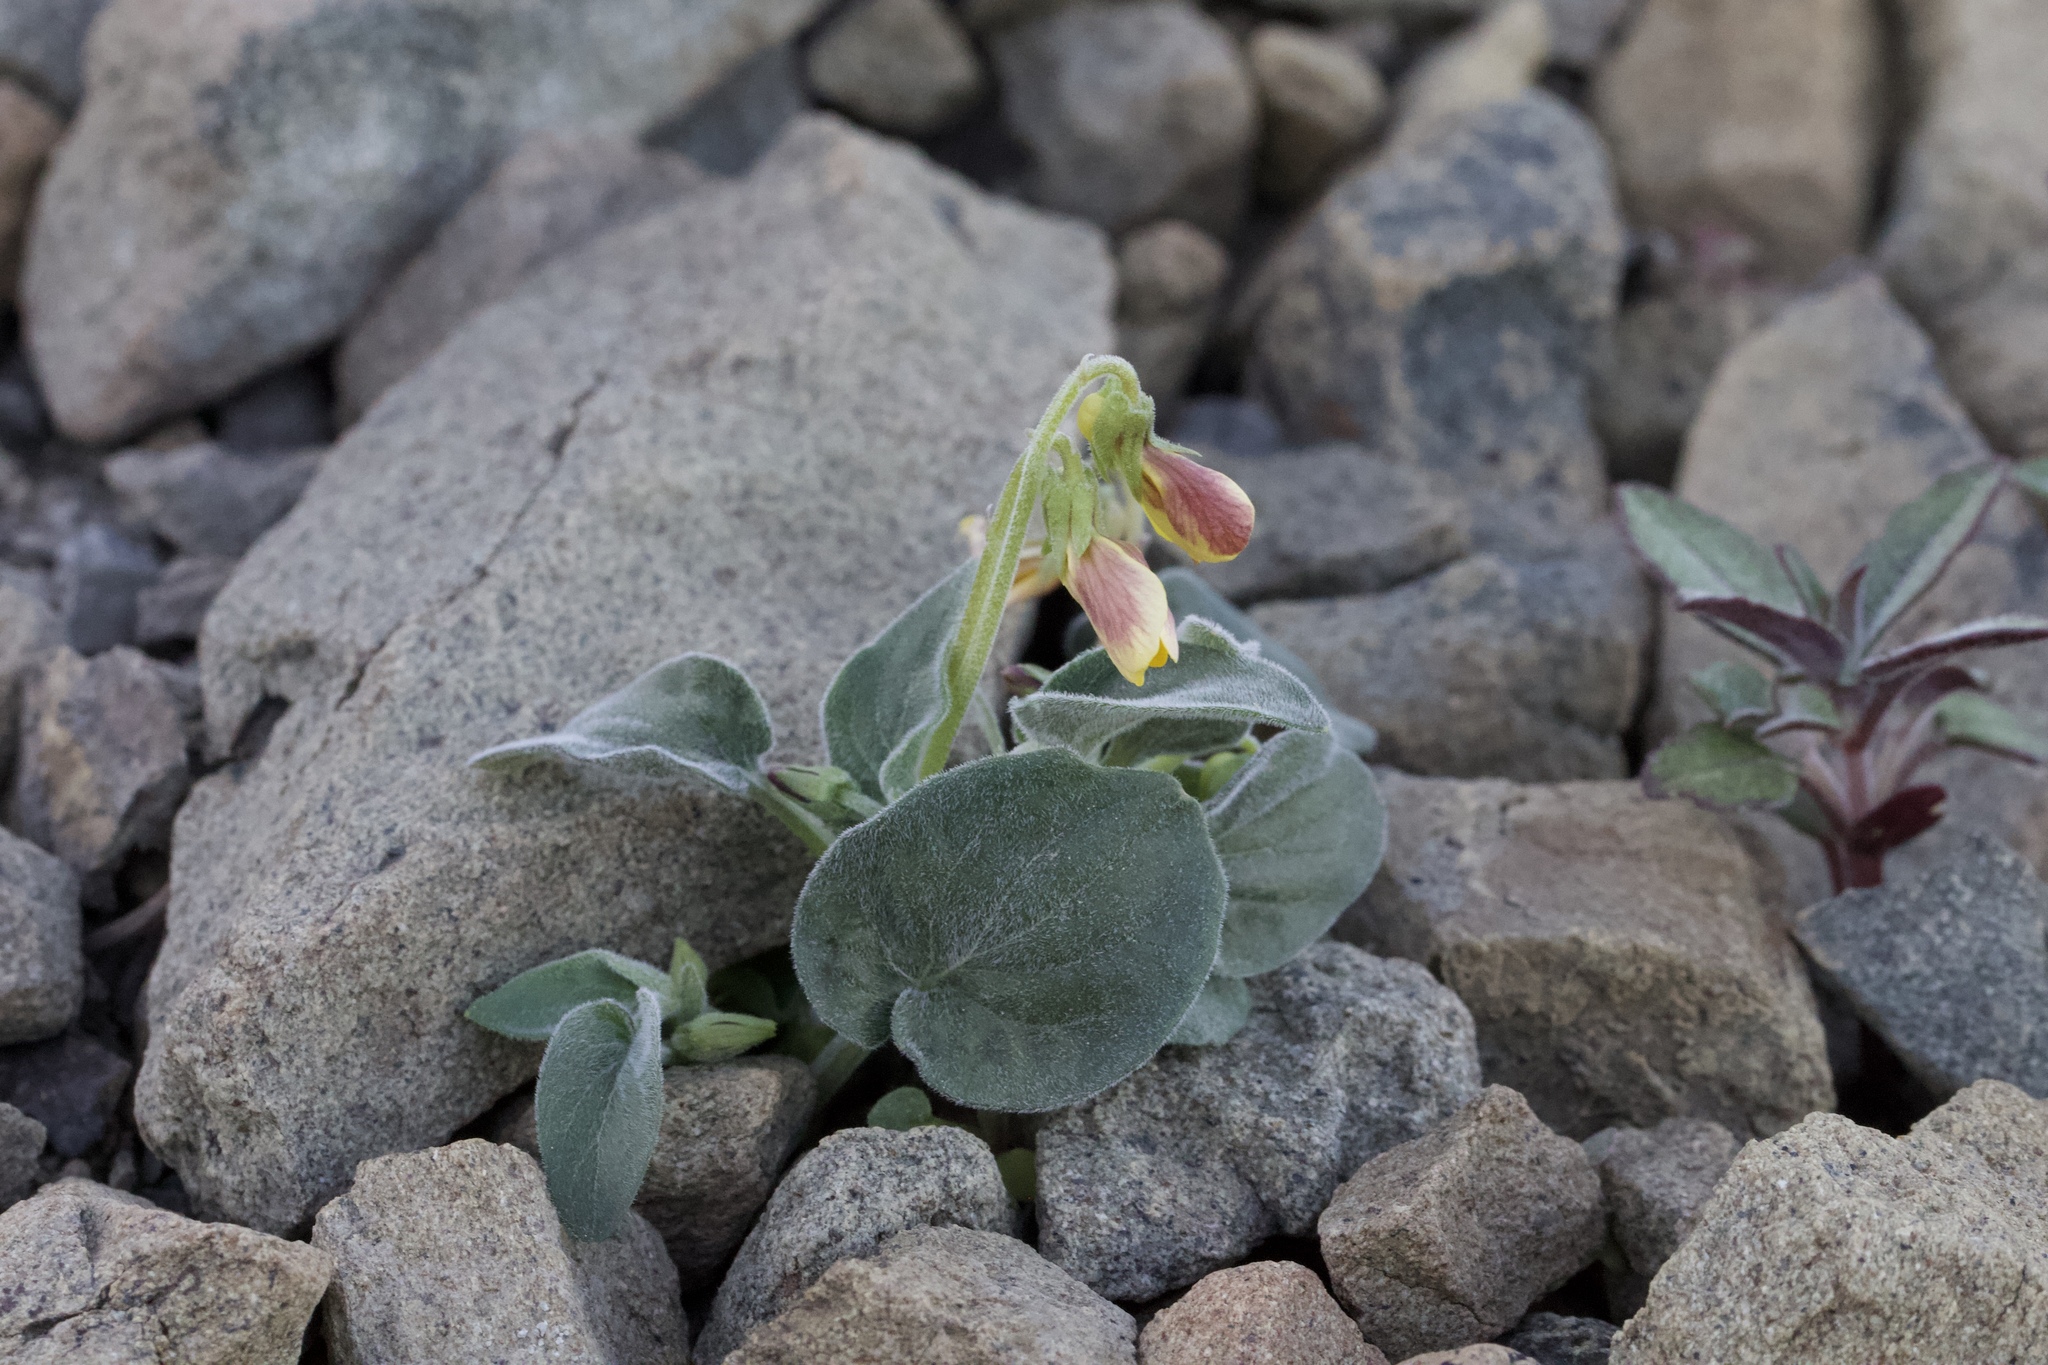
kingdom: Plantae
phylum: Tracheophyta
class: Magnoliopsida
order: Malpighiales
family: Violaceae
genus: Viola
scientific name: Viola purpurea
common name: Pine violet
